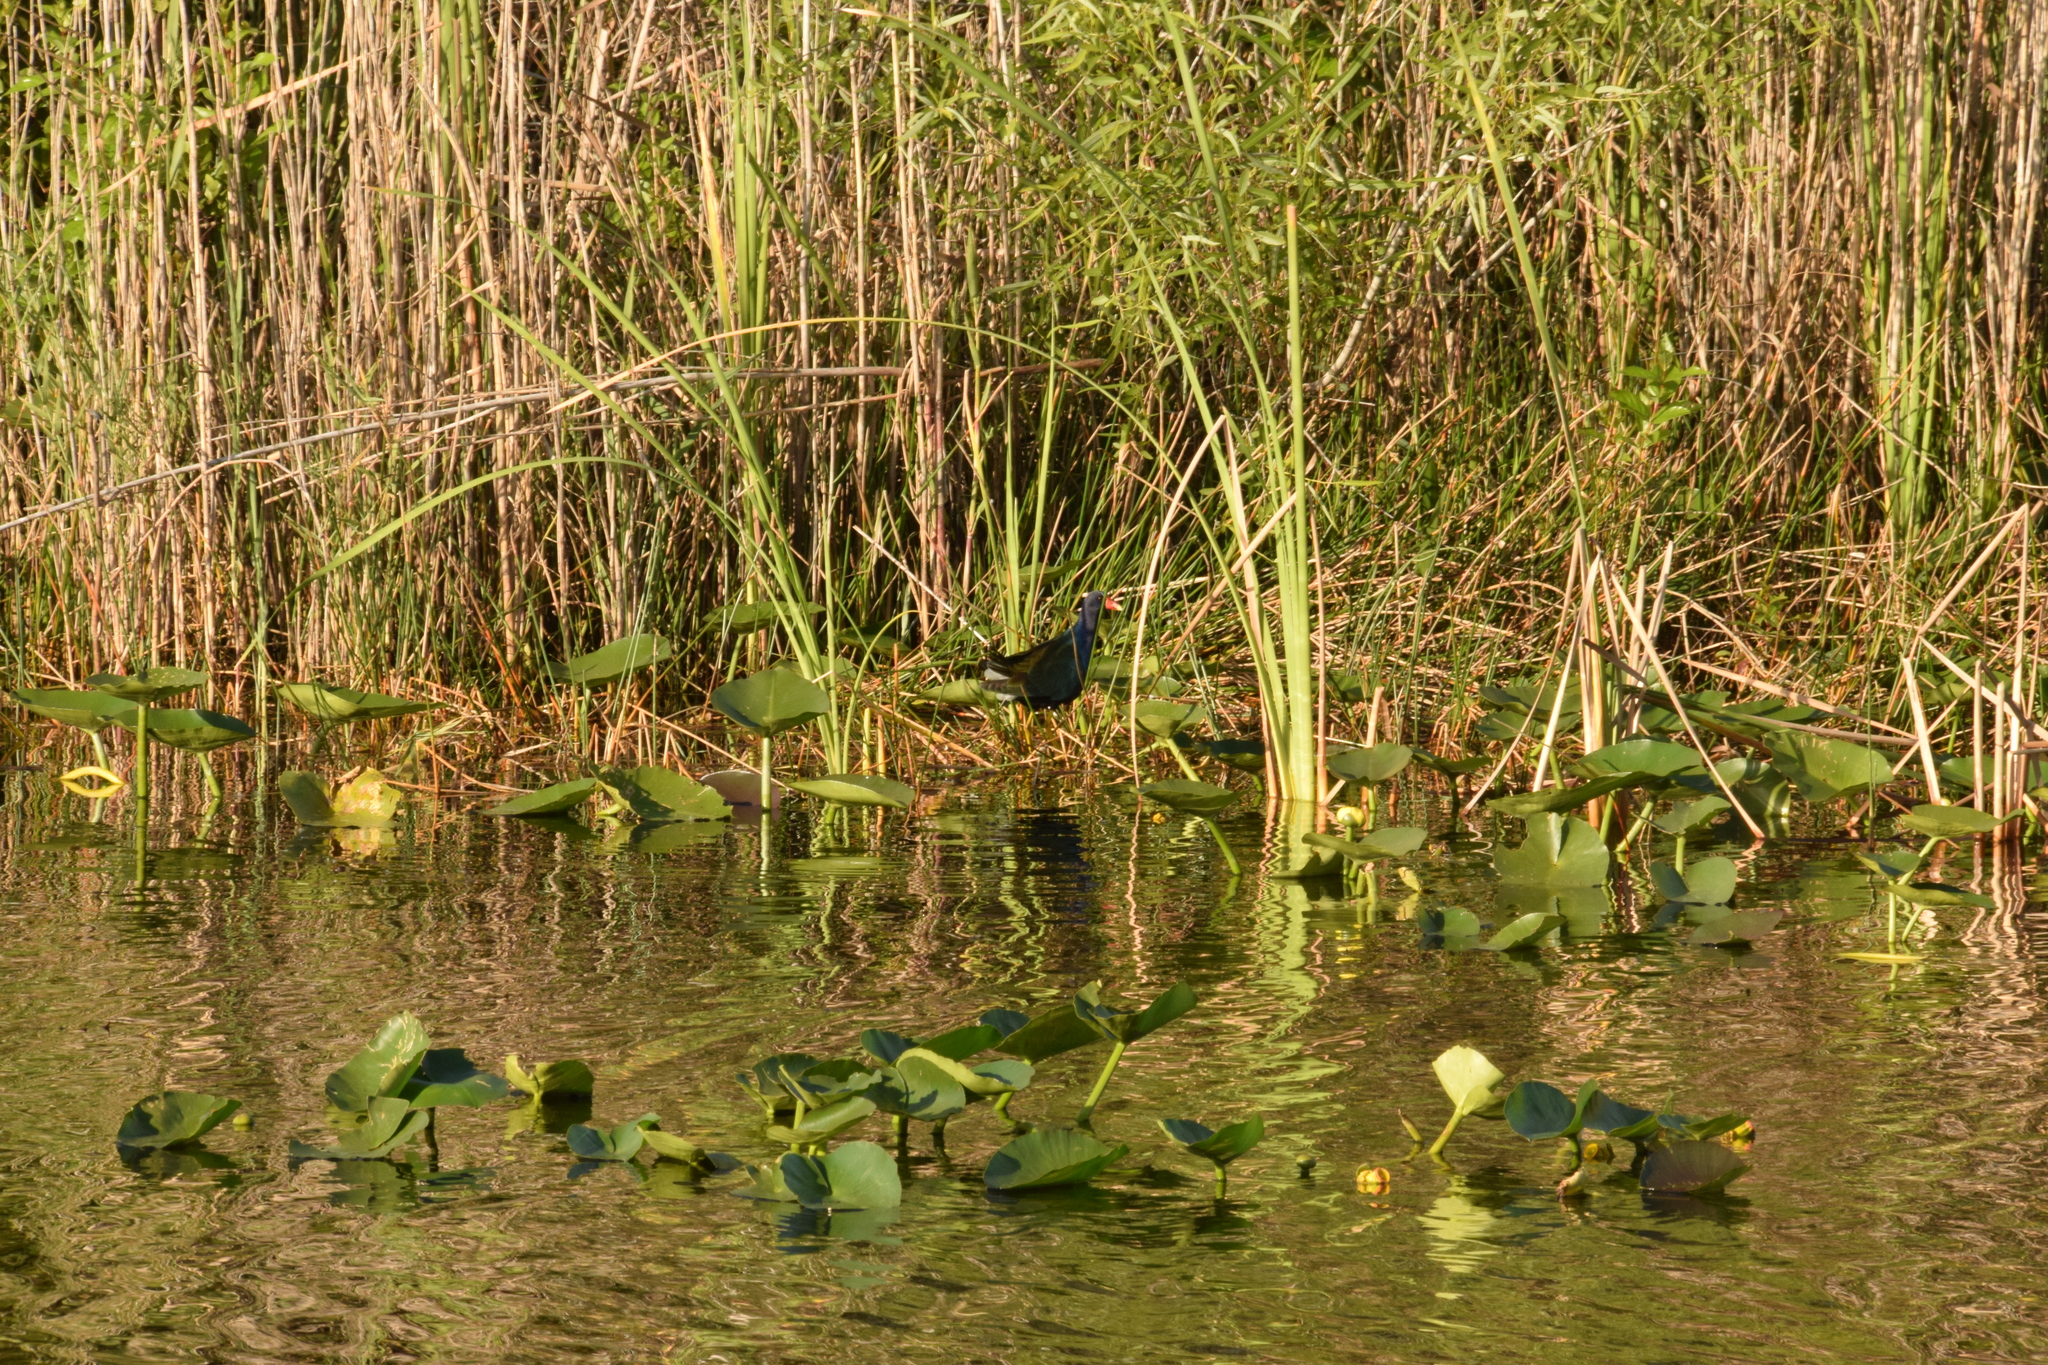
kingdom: Animalia
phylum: Chordata
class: Aves
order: Gruiformes
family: Rallidae
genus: Porphyrio
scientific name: Porphyrio martinica
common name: Purple gallinule
